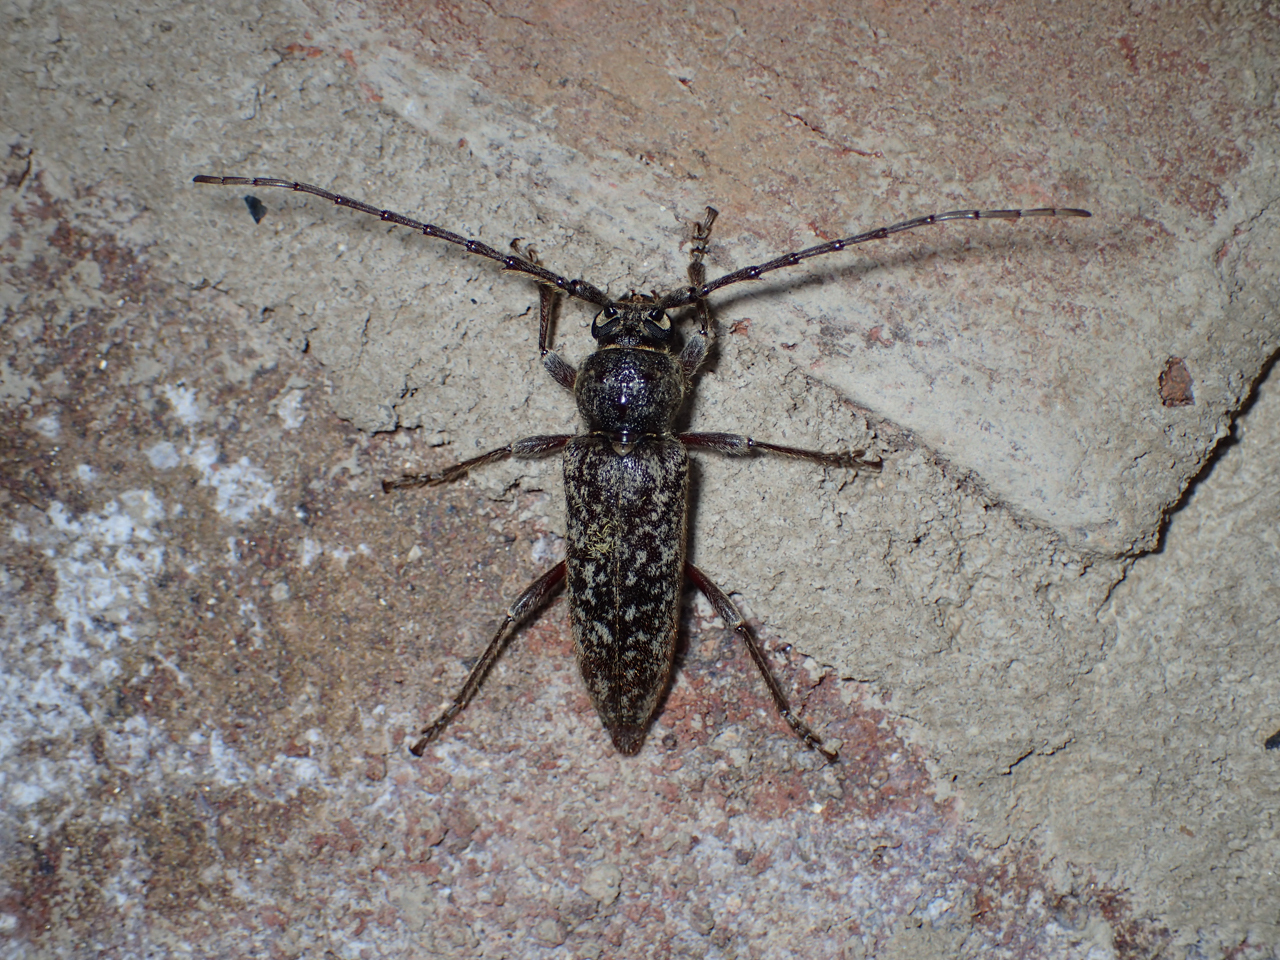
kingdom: Animalia
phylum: Arthropoda
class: Insecta
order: Coleoptera
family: Cerambycidae
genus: Enaphalodes
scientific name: Enaphalodes cortiphagus
